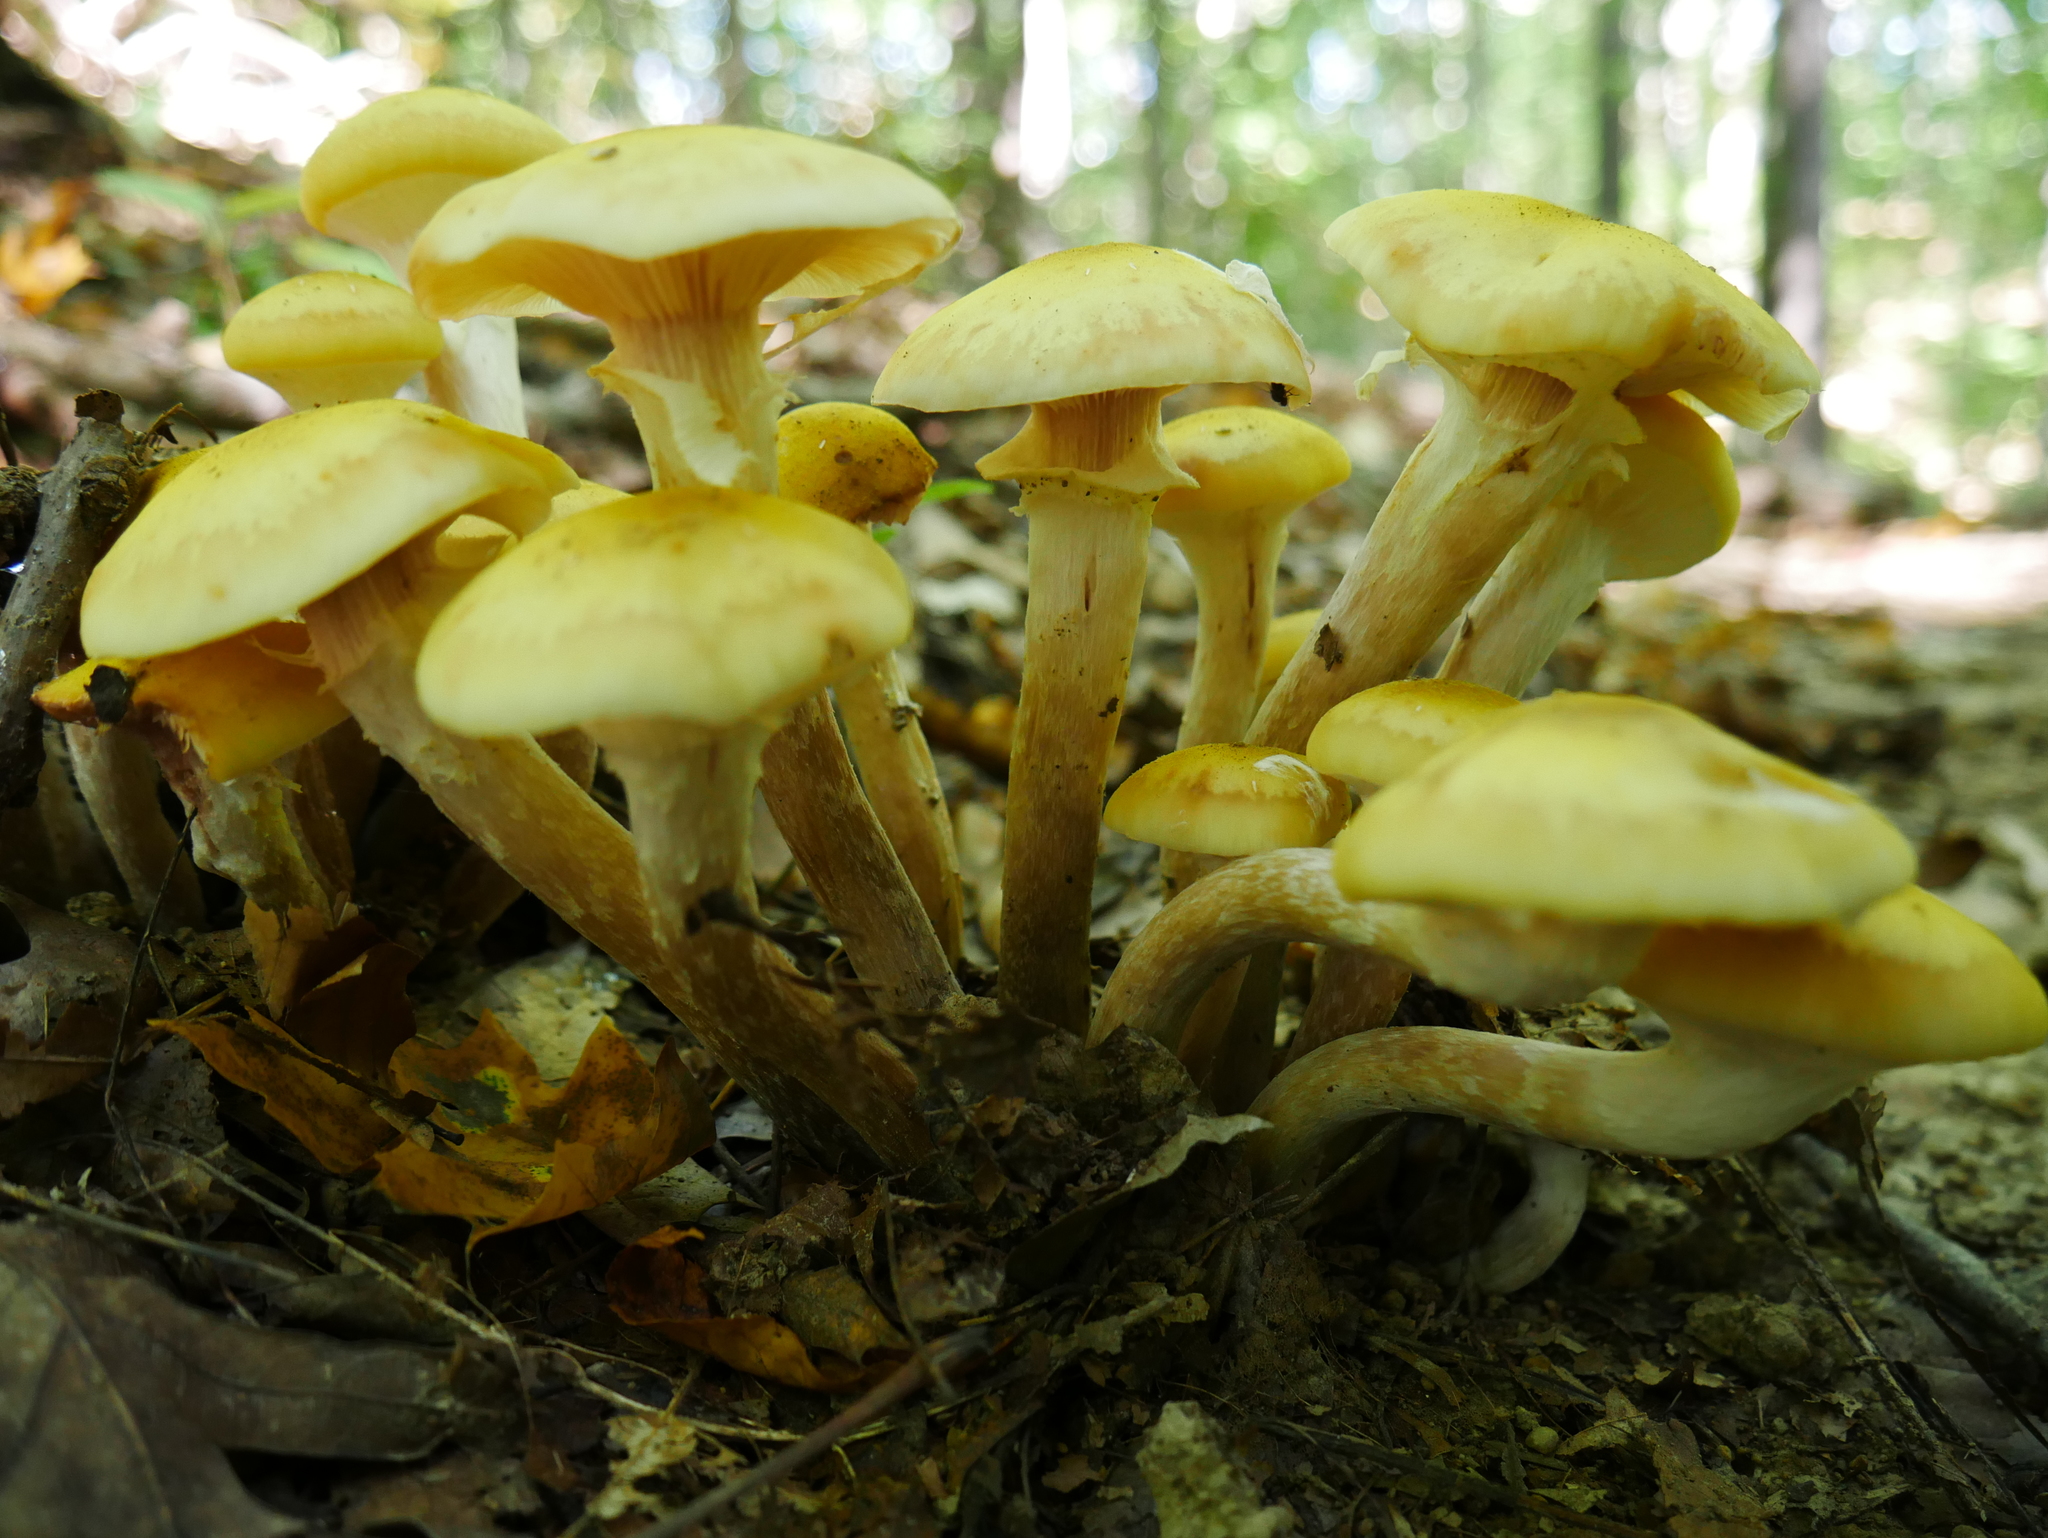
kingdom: Fungi
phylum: Basidiomycota
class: Agaricomycetes
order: Agaricales
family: Physalacriaceae
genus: Armillaria
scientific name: Armillaria mellea
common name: Honey fungus
